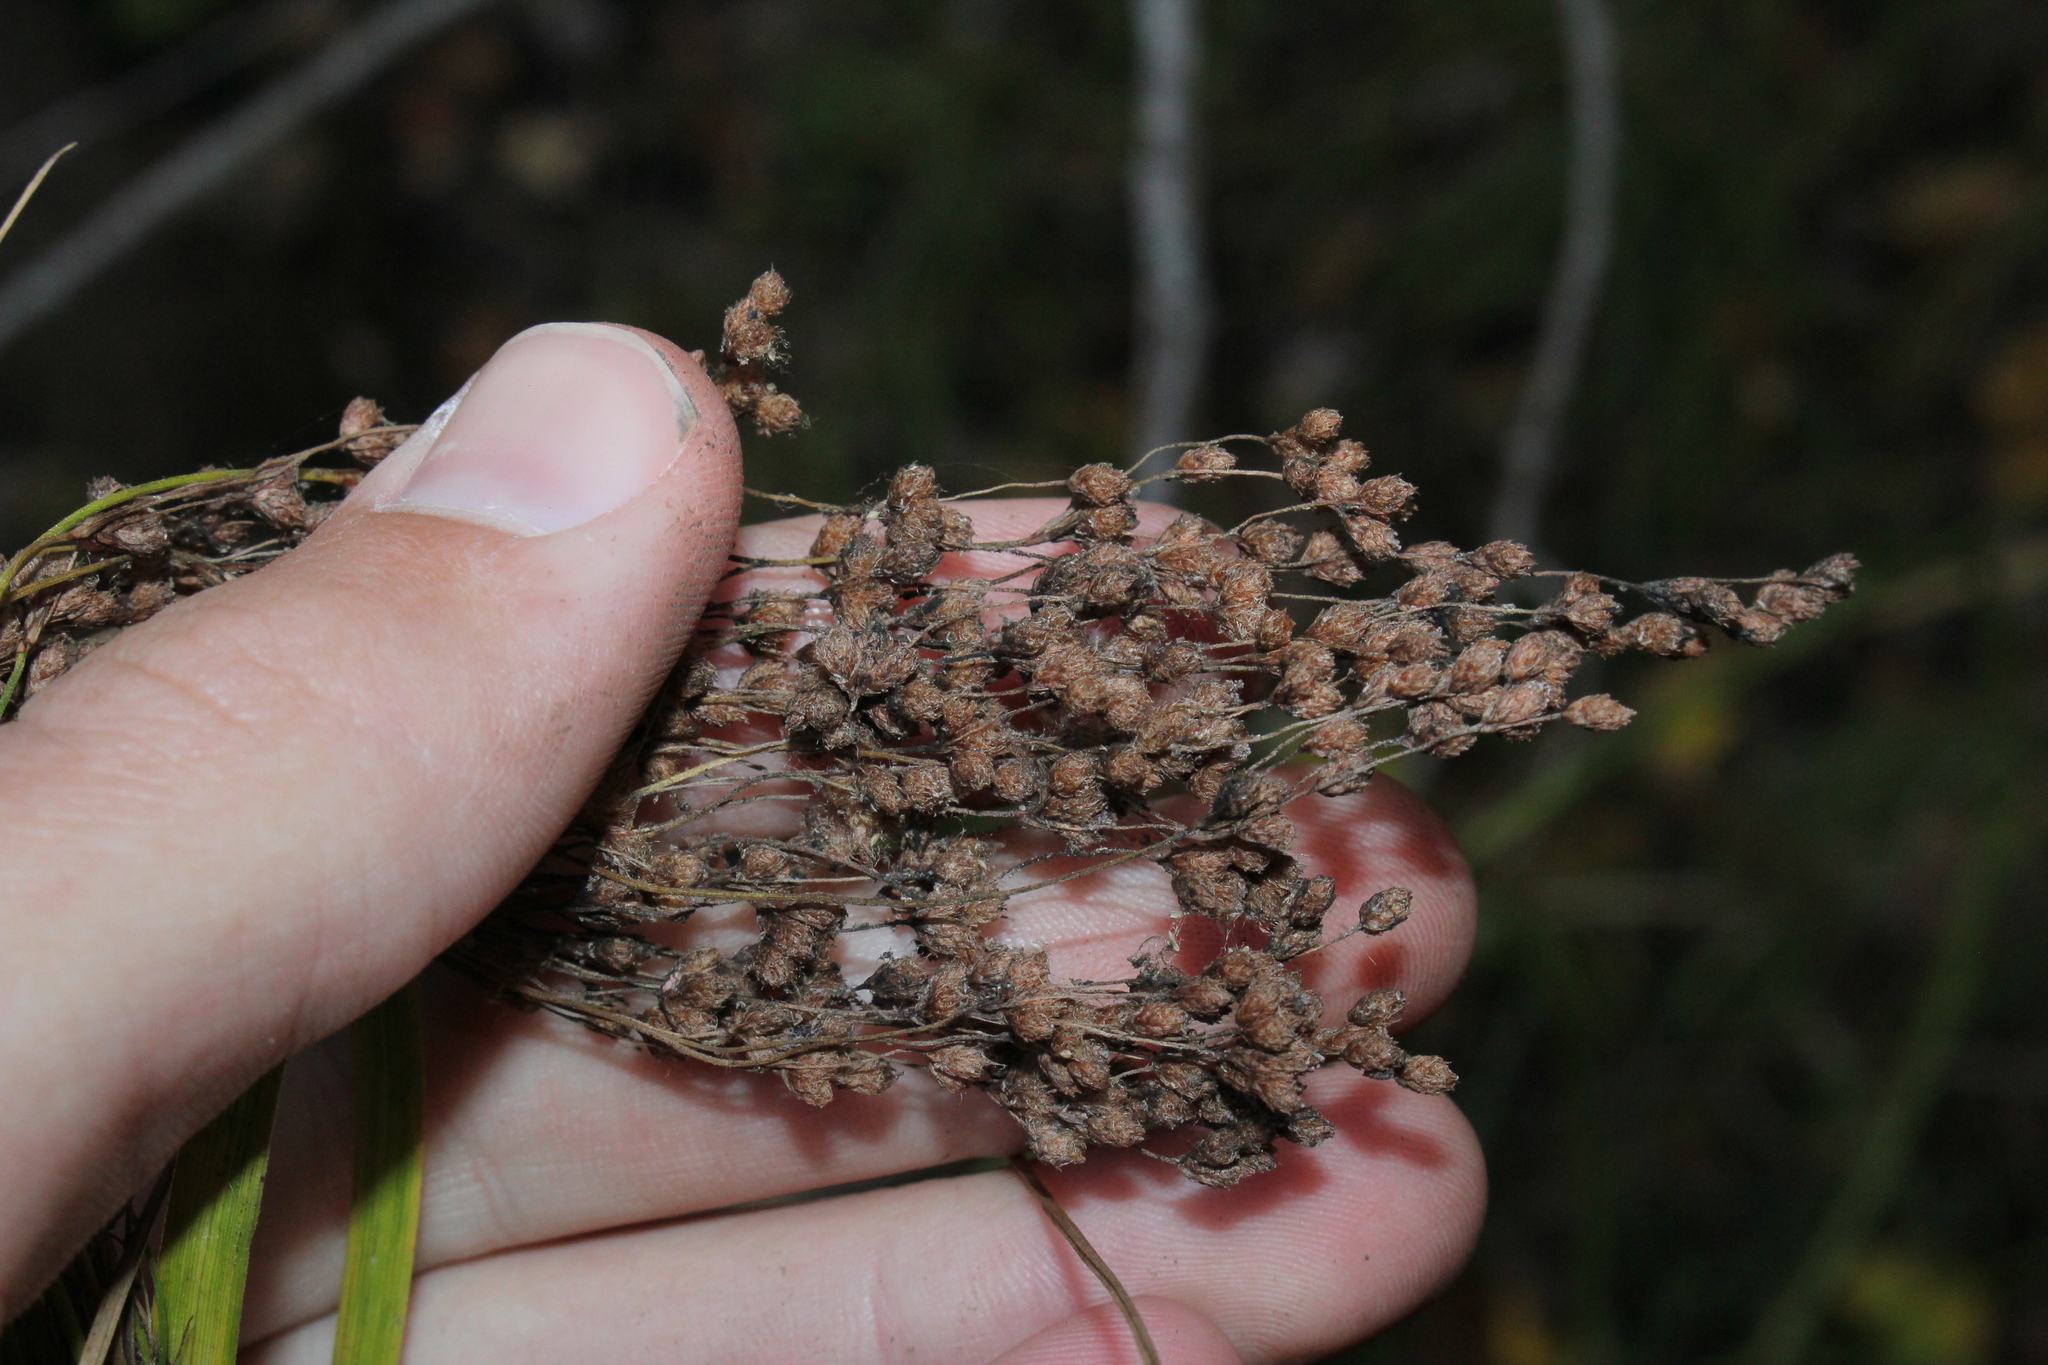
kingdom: Plantae
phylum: Tracheophyta
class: Liliopsida
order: Poales
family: Cyperaceae
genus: Scirpus
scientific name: Scirpus pedicellatus
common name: Pedicelled bulrush
